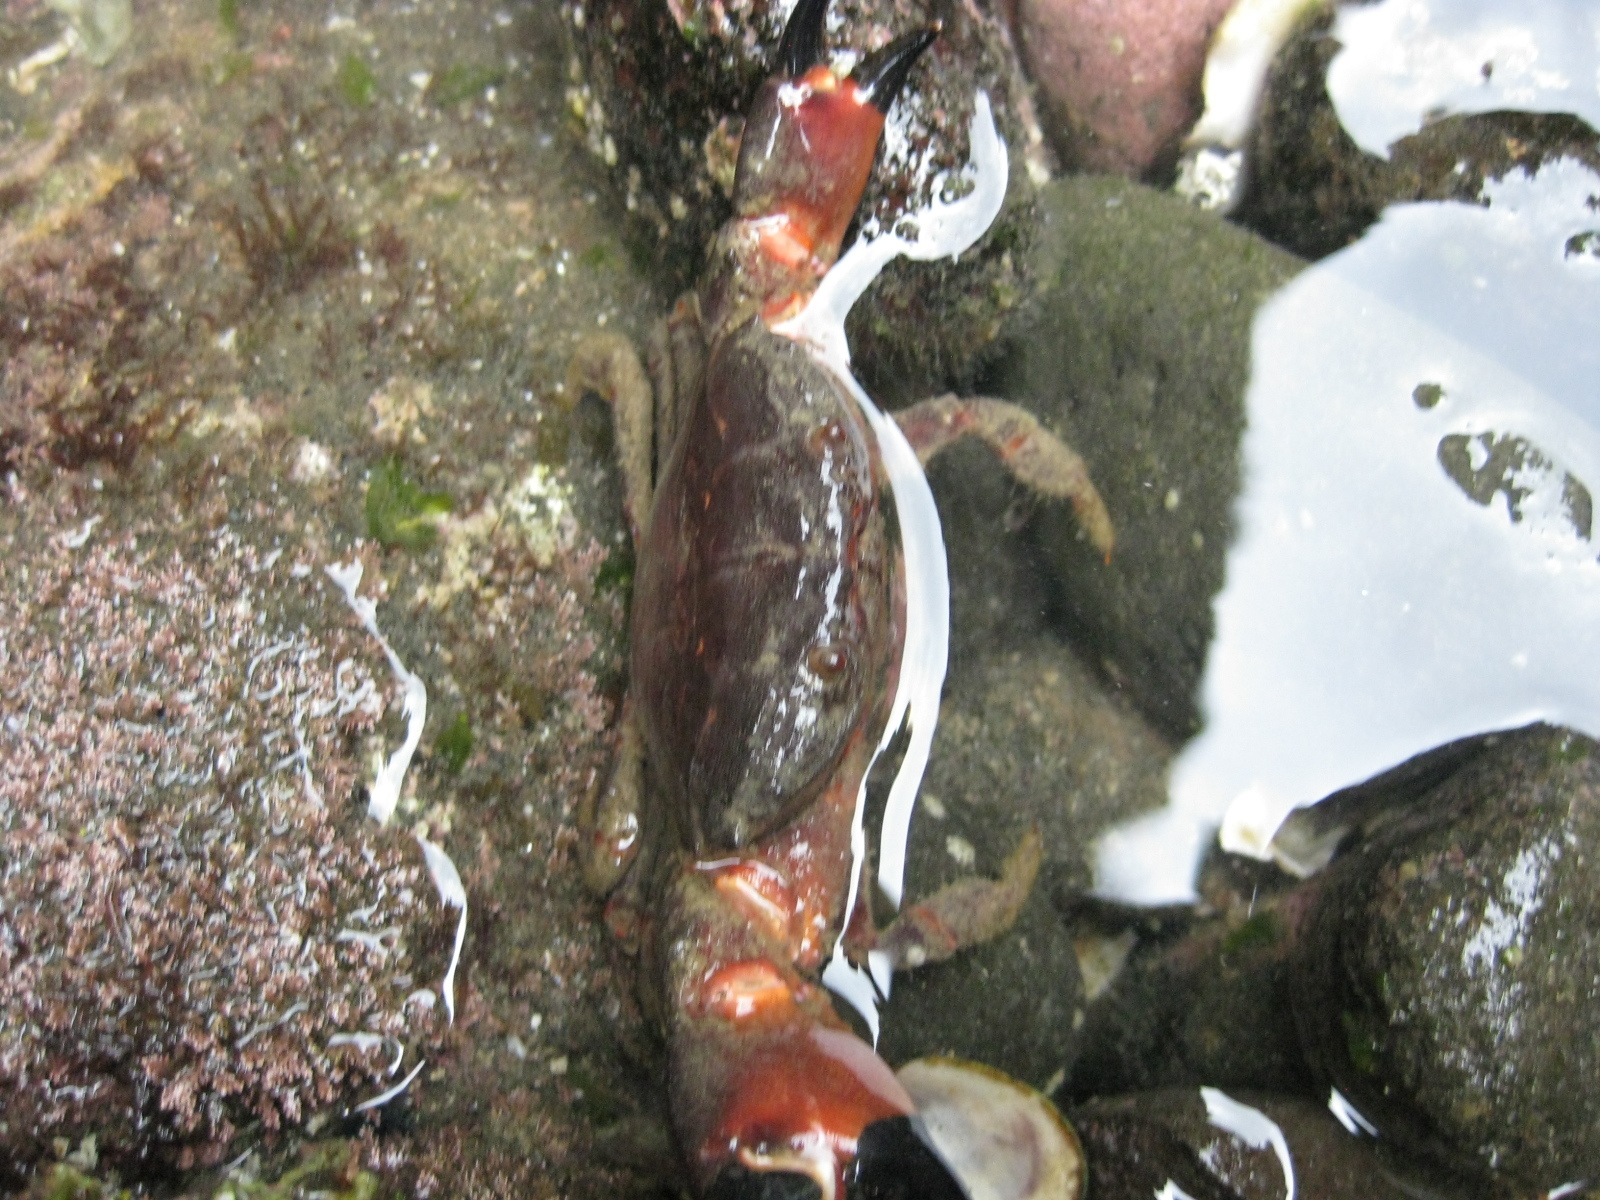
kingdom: Animalia
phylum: Arthropoda
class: Malacostraca
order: Decapoda
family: Oziidae
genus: Ozius
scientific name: Ozius deplanatus
